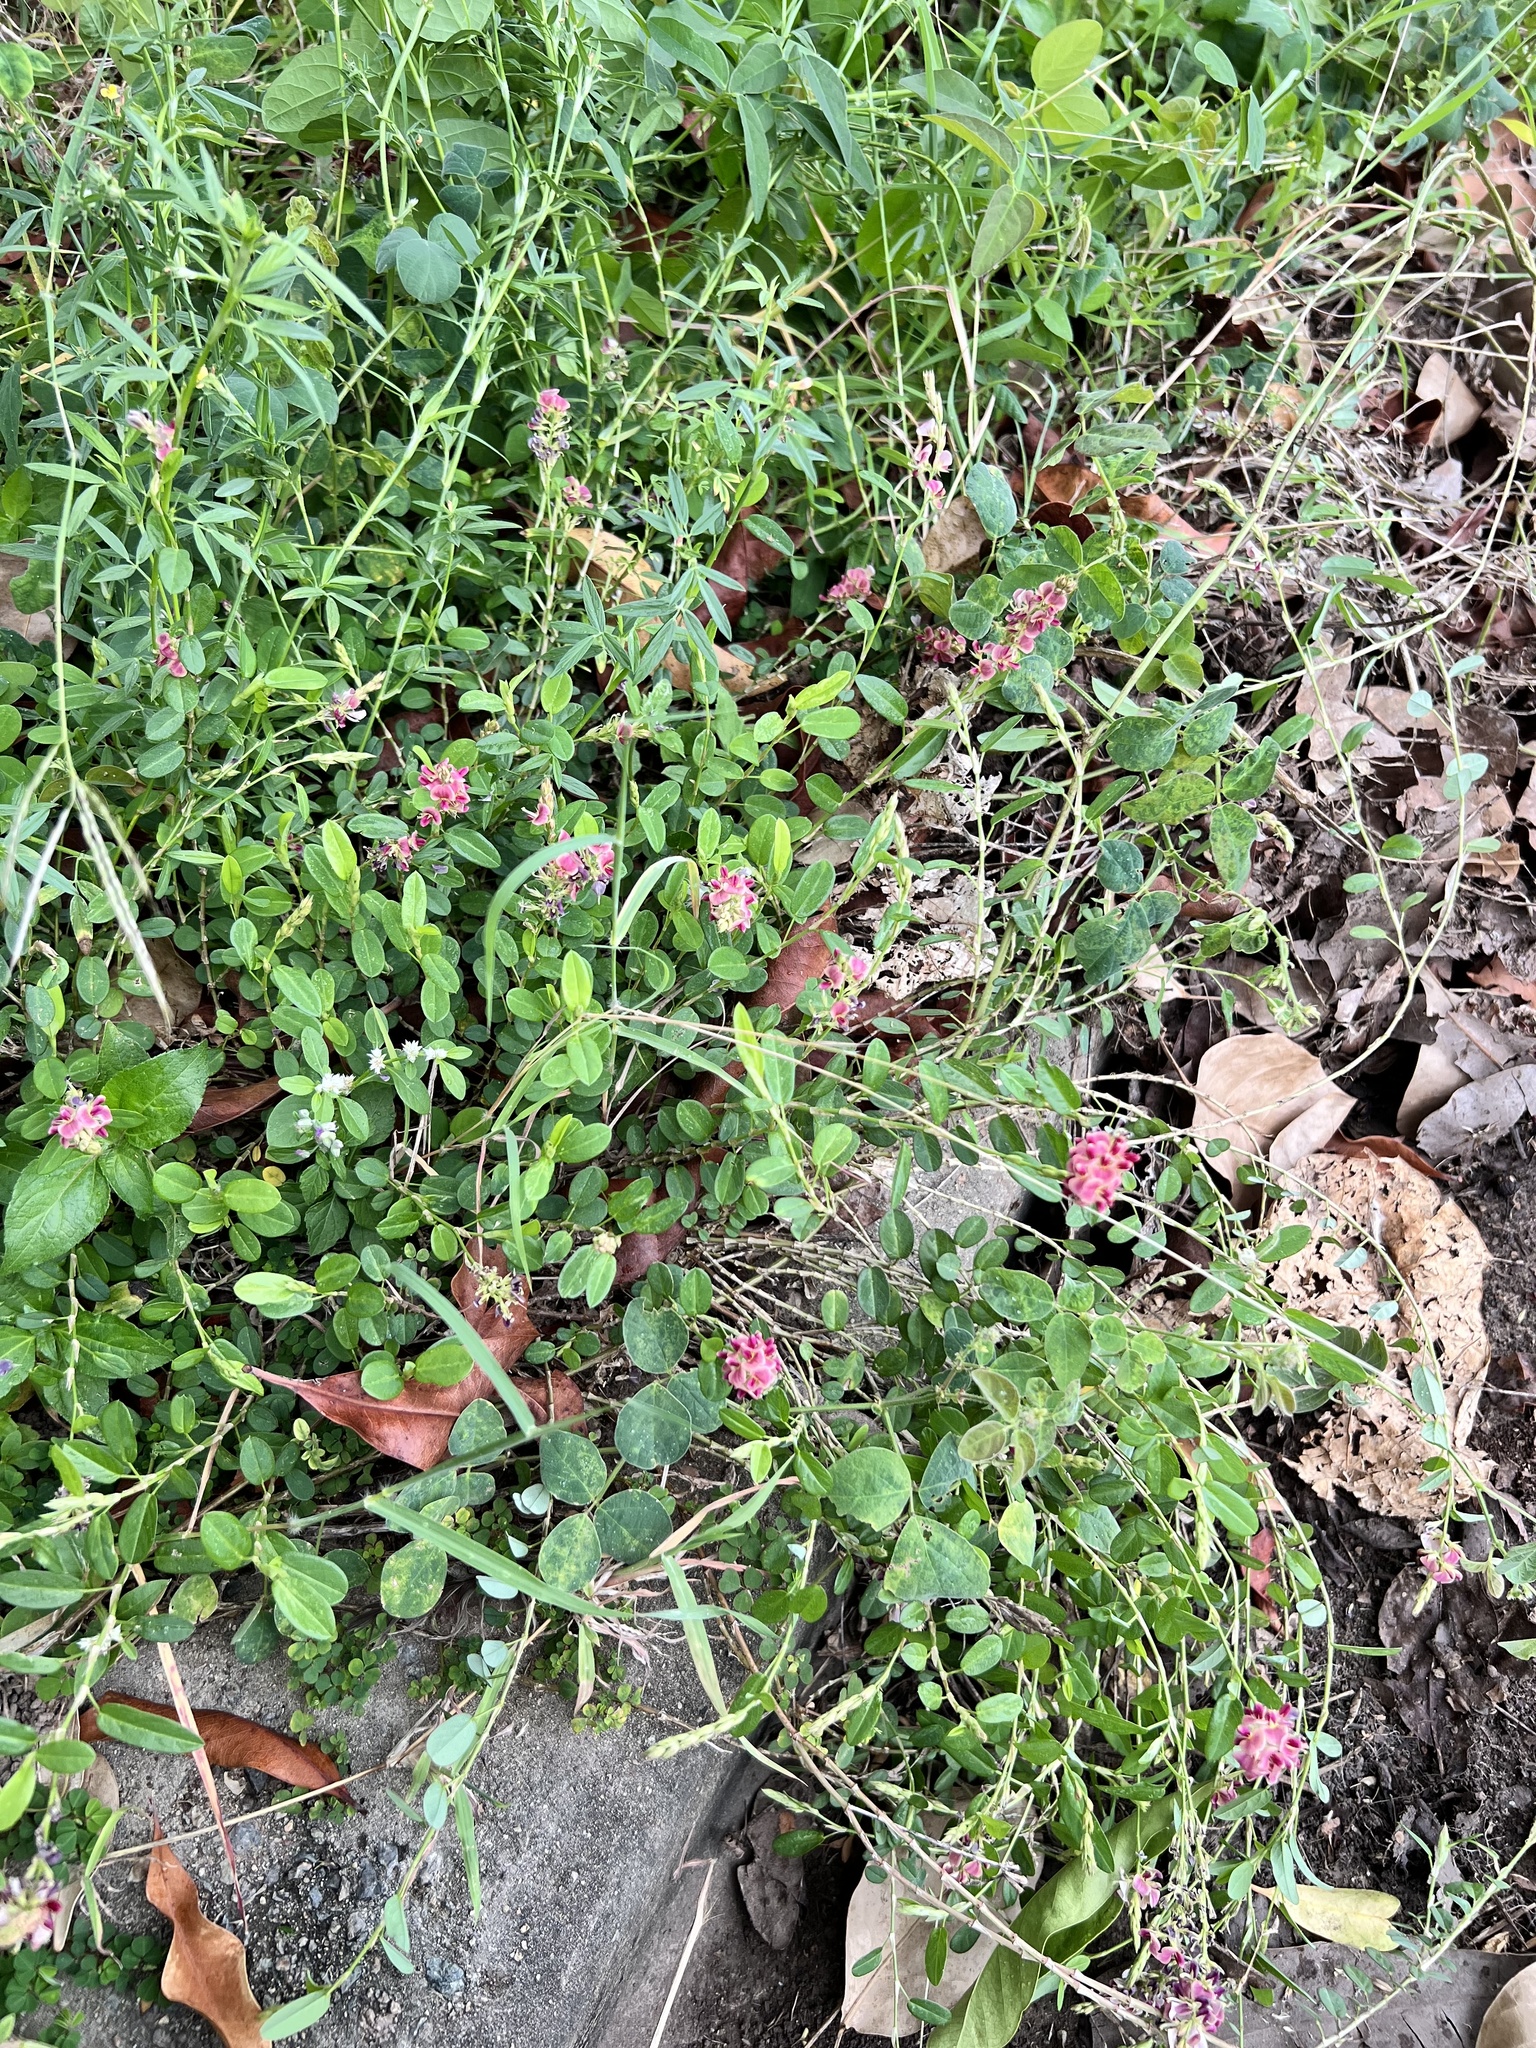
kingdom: Plantae
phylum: Tracheophyta
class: Magnoliopsida
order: Fabales
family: Fabaceae
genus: Alysicarpus
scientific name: Alysicarpus vaginalis
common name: White moneywort
